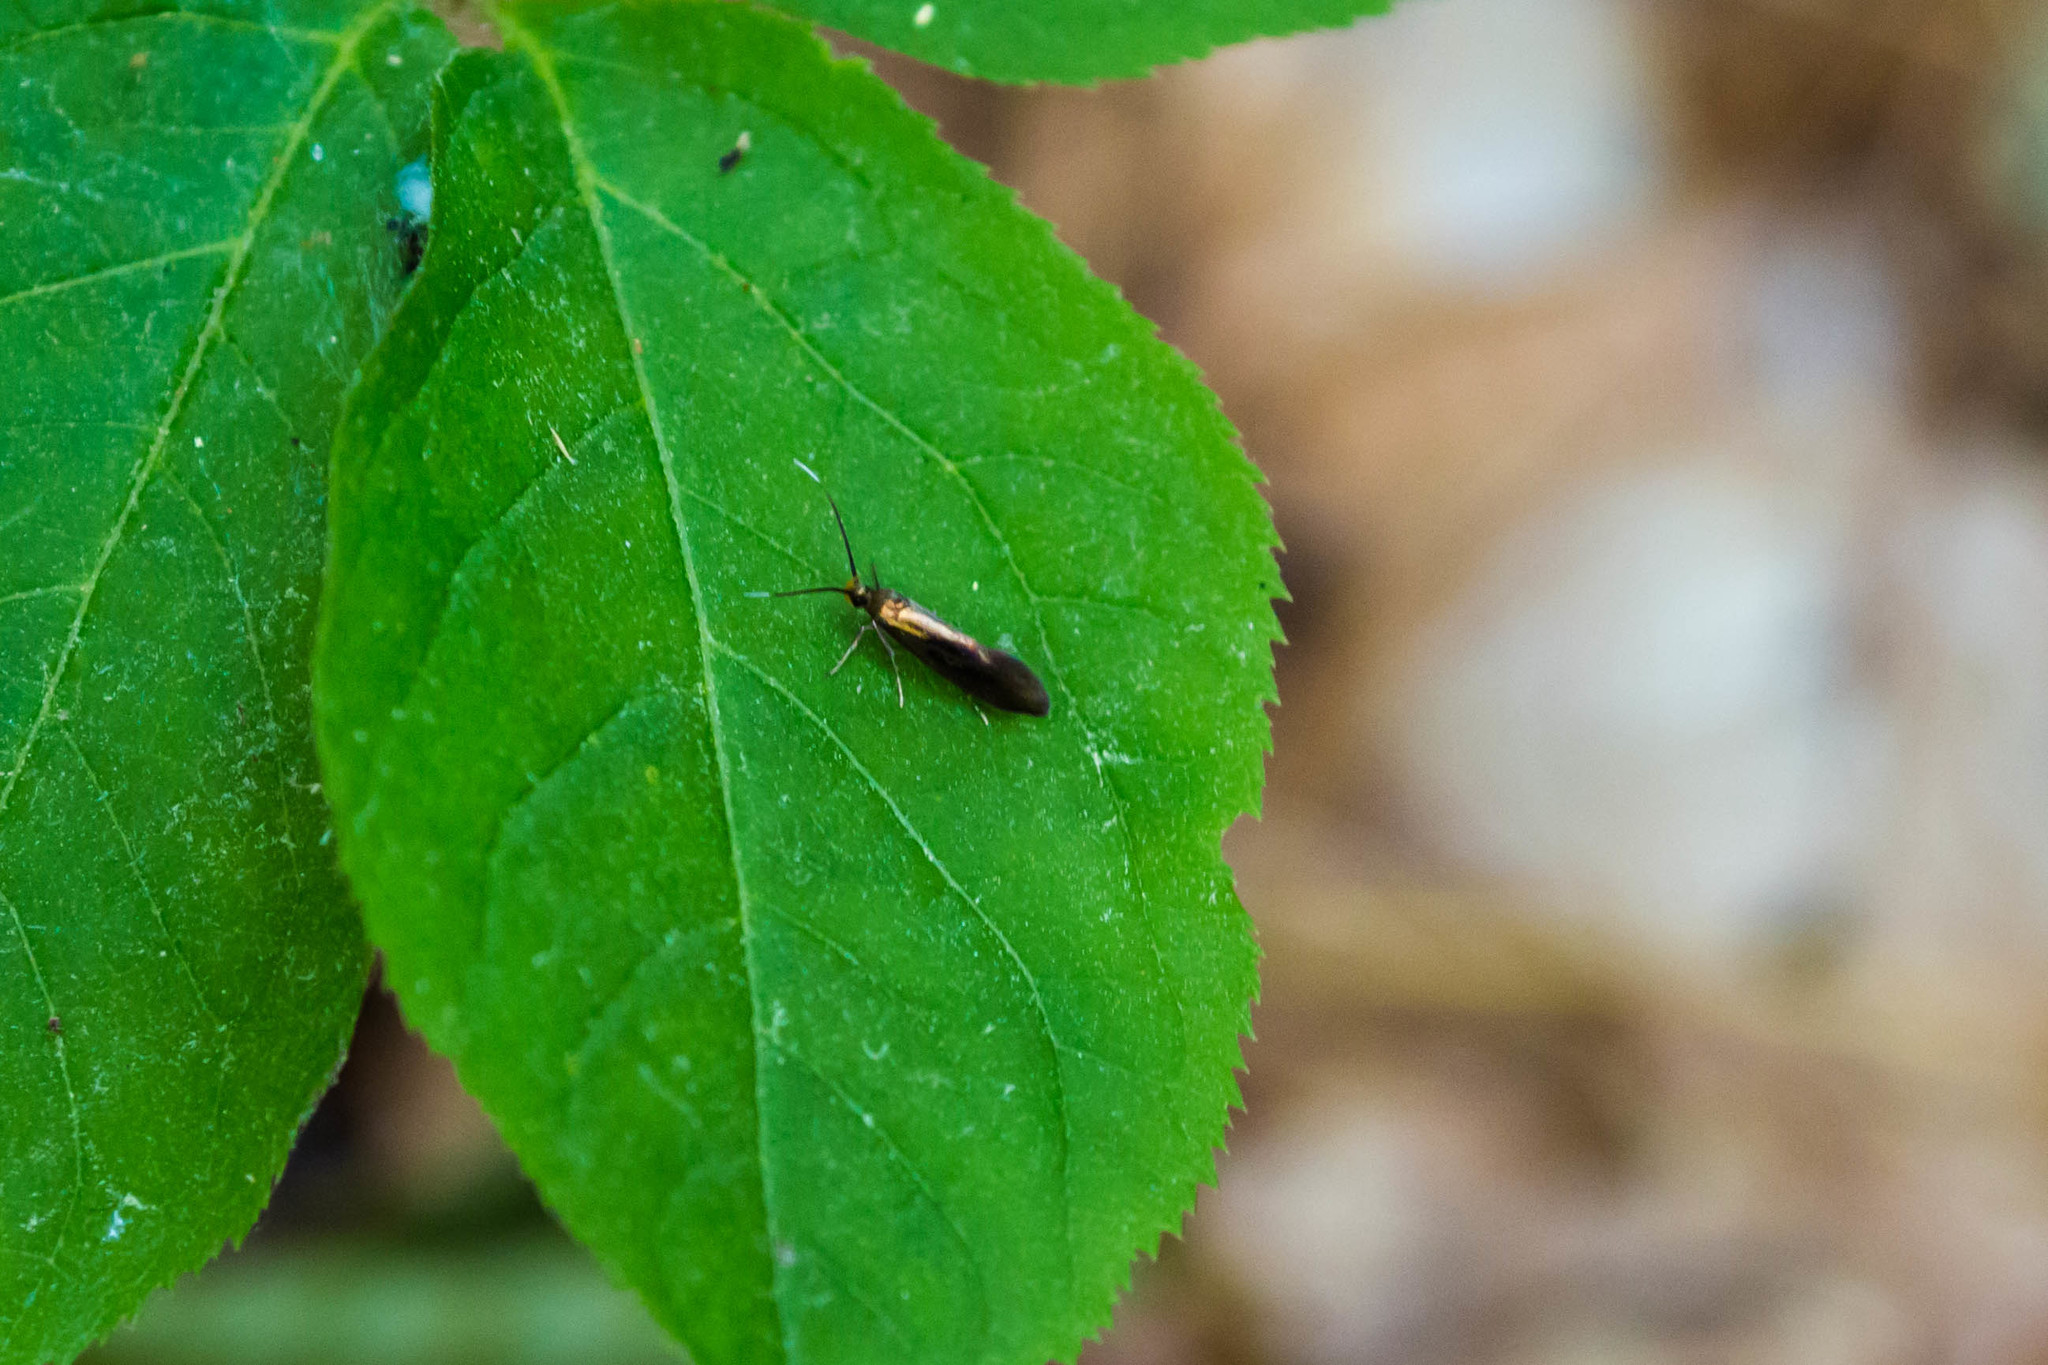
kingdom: Animalia
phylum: Arthropoda
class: Insecta
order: Lepidoptera
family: Oecophoridae
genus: Mathildana
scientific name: Mathildana newmanella
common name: Newman's mathildana moth
